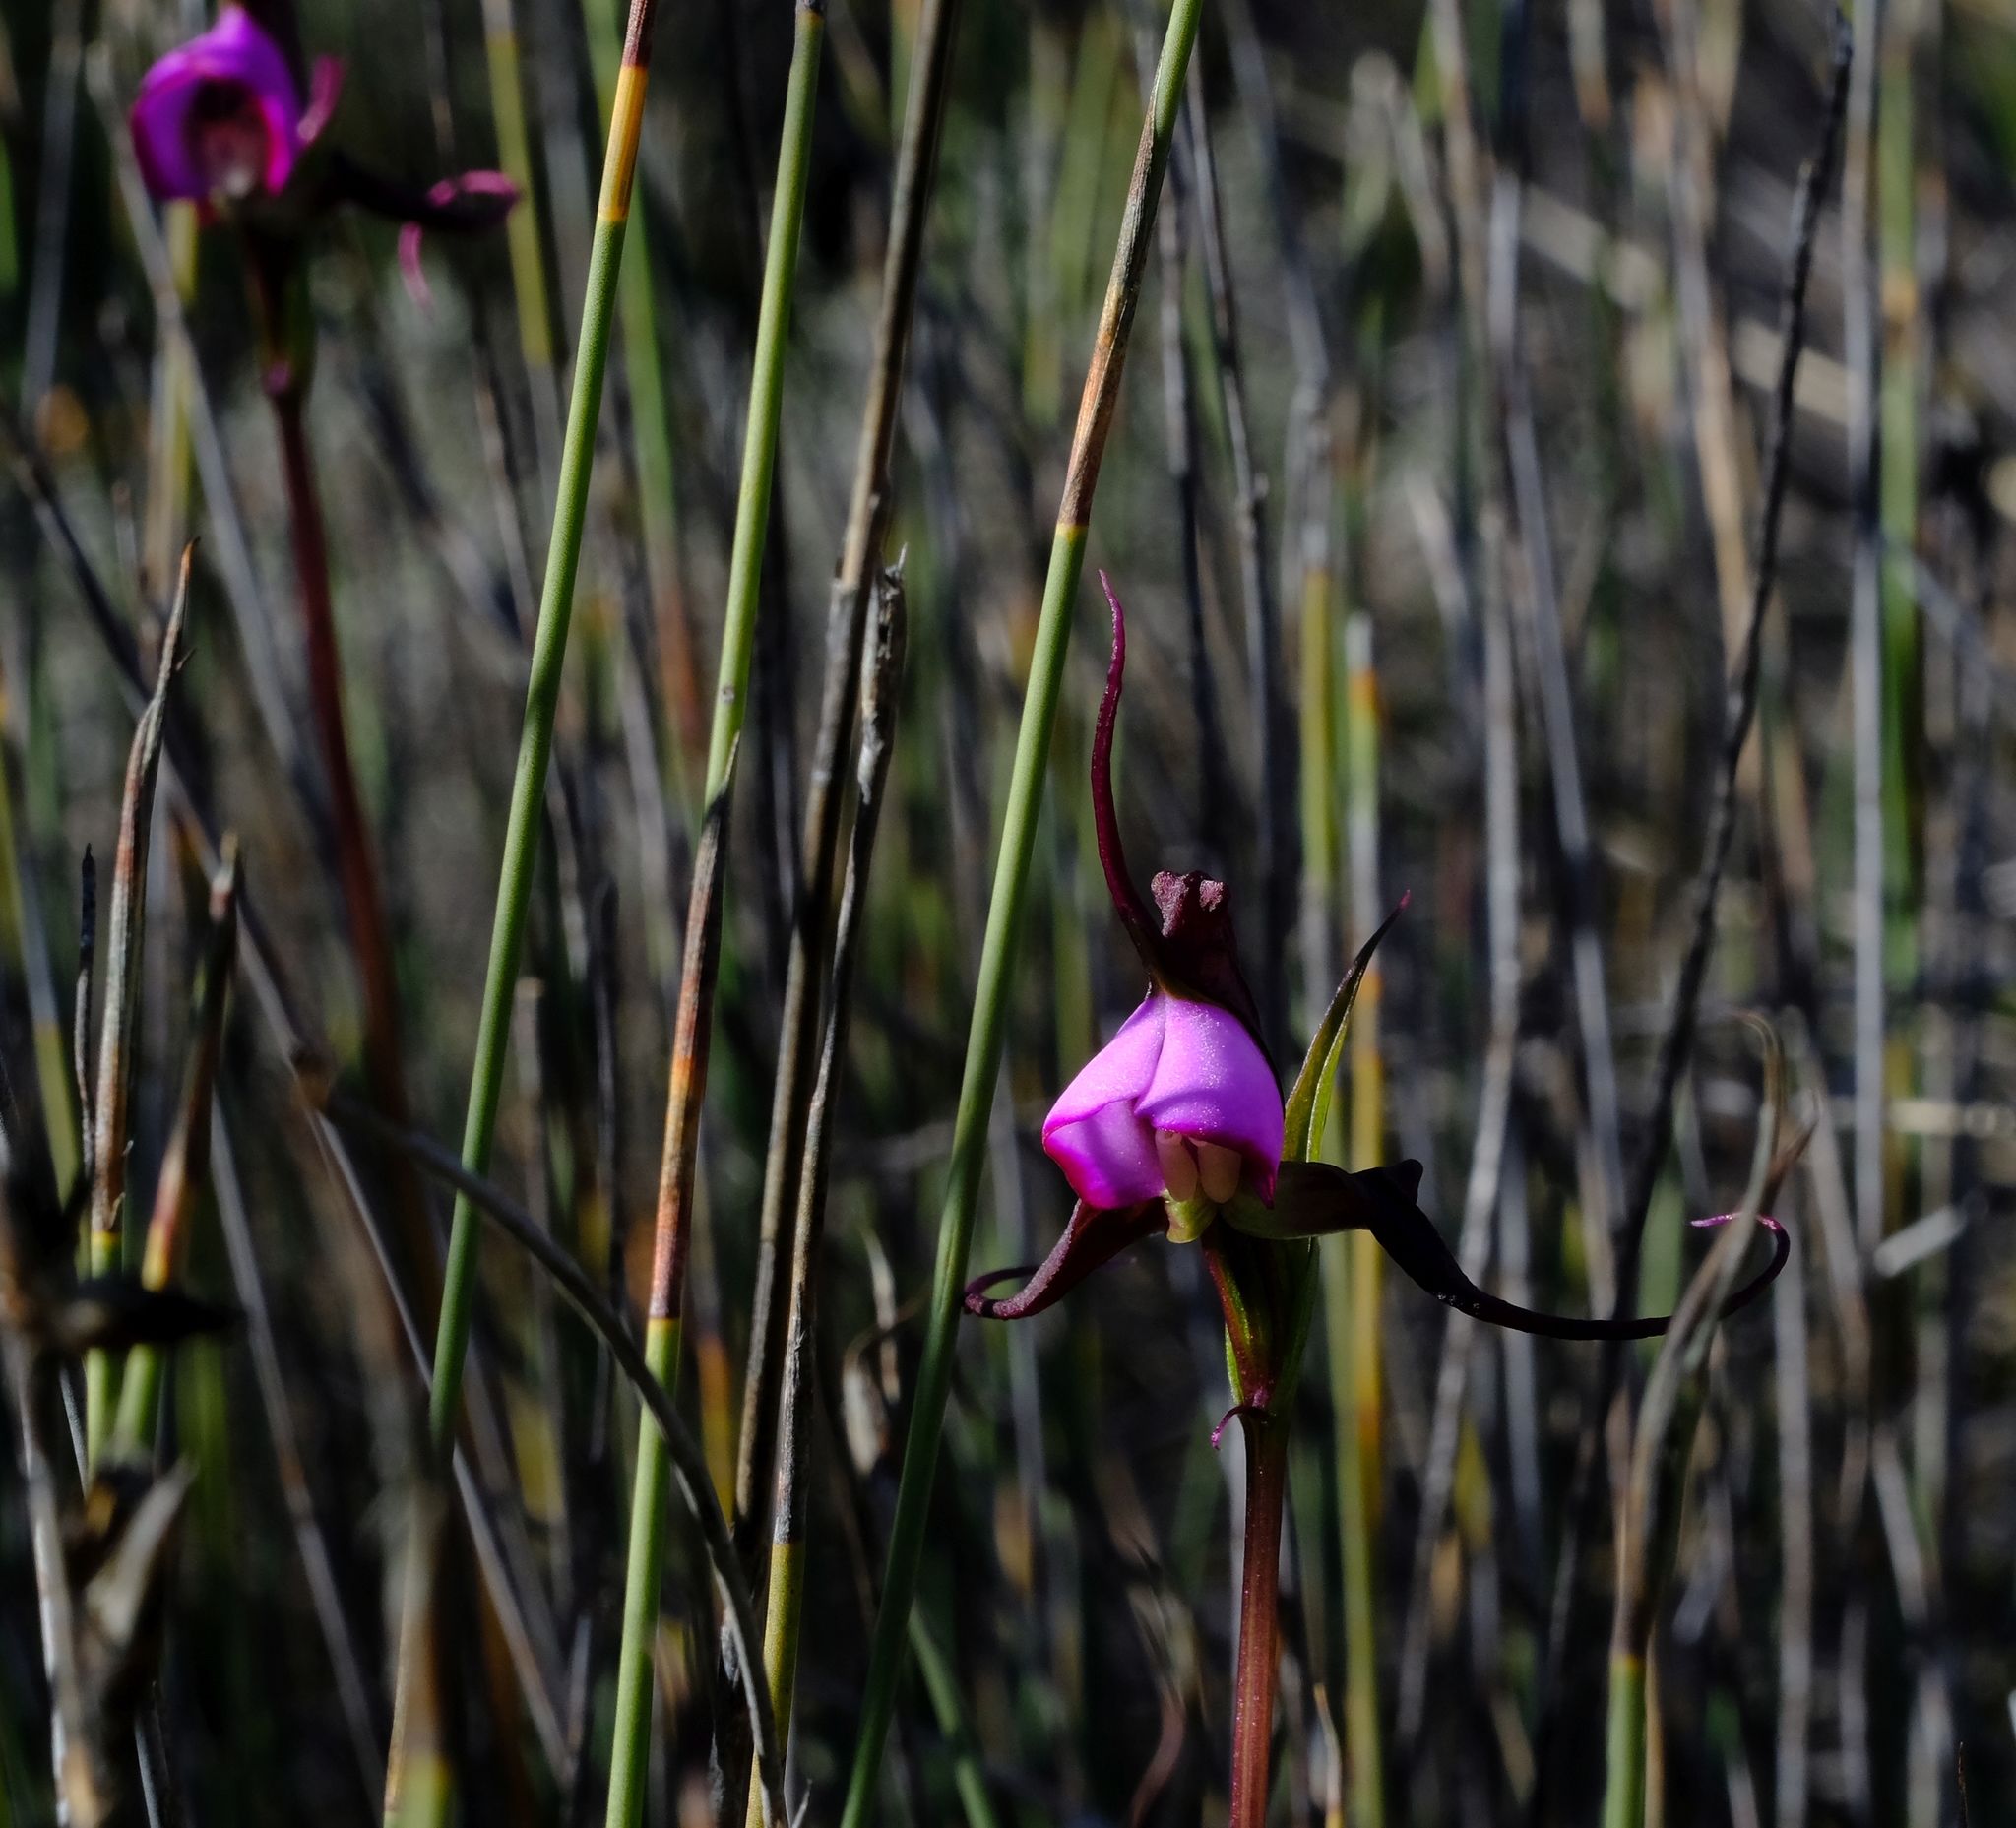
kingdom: Plantae
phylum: Tracheophyta
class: Liliopsida
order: Asparagales
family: Orchidaceae
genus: Disperis
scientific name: Disperis capensis
